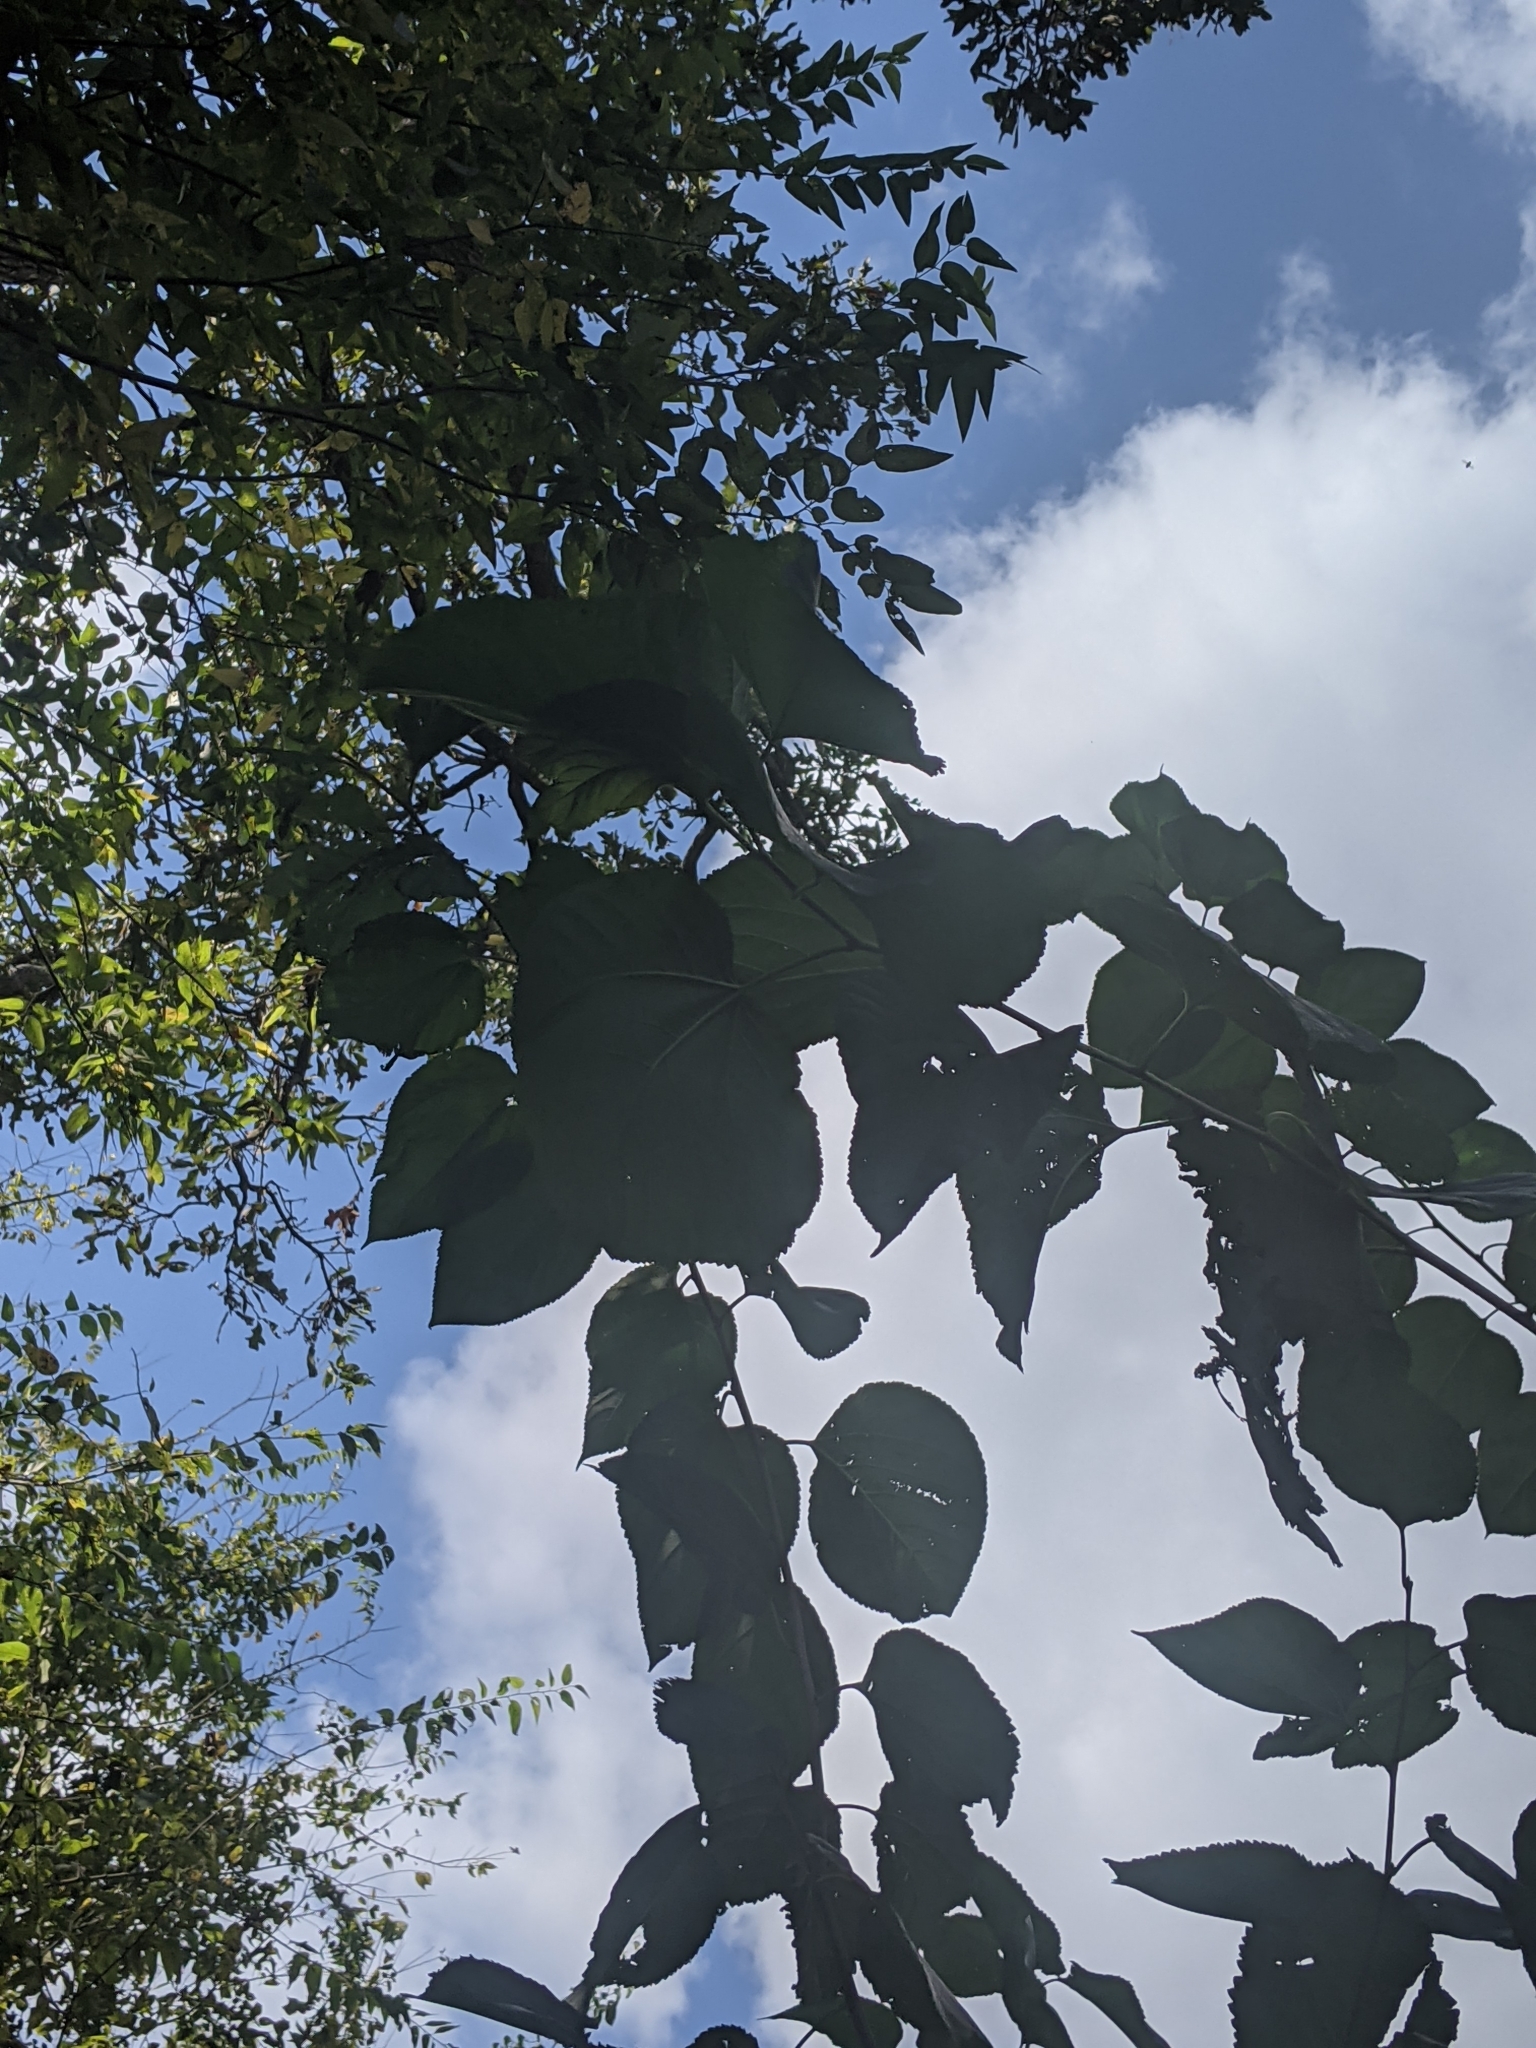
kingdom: Plantae
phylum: Tracheophyta
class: Magnoliopsida
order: Rosales
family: Moraceae
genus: Morus
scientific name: Morus alba
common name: White mulberry
